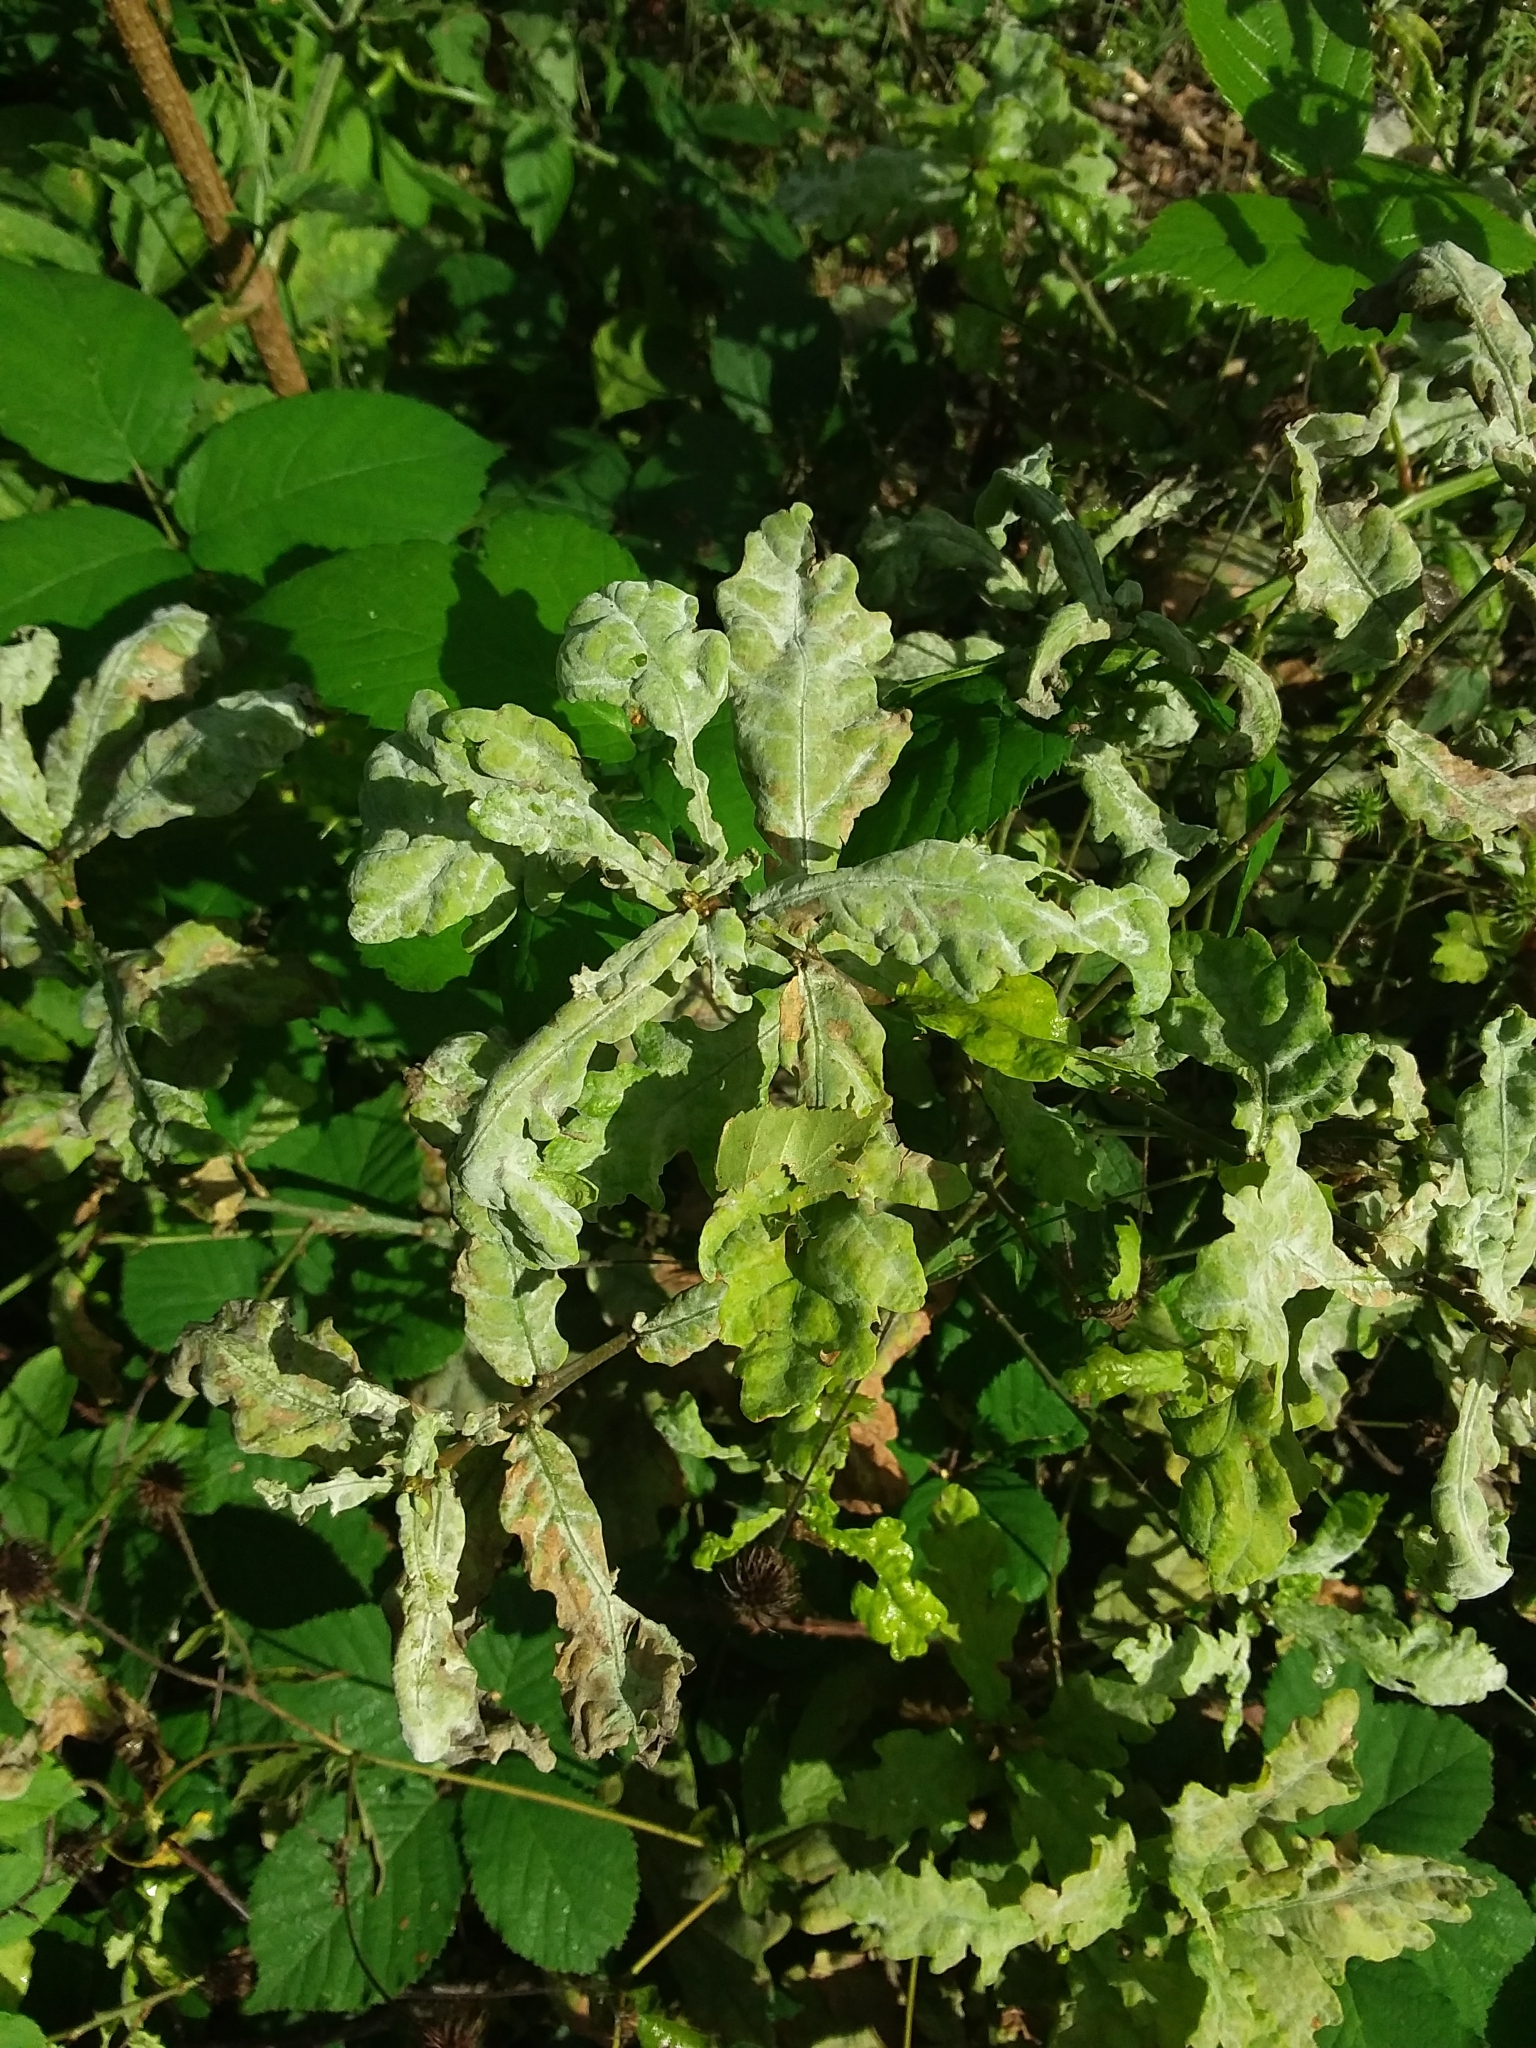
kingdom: Fungi
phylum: Ascomycota
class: Leotiomycetes
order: Helotiales
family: Erysiphaceae
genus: Erysiphe
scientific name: Erysiphe alphitoides
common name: Oak mildew
